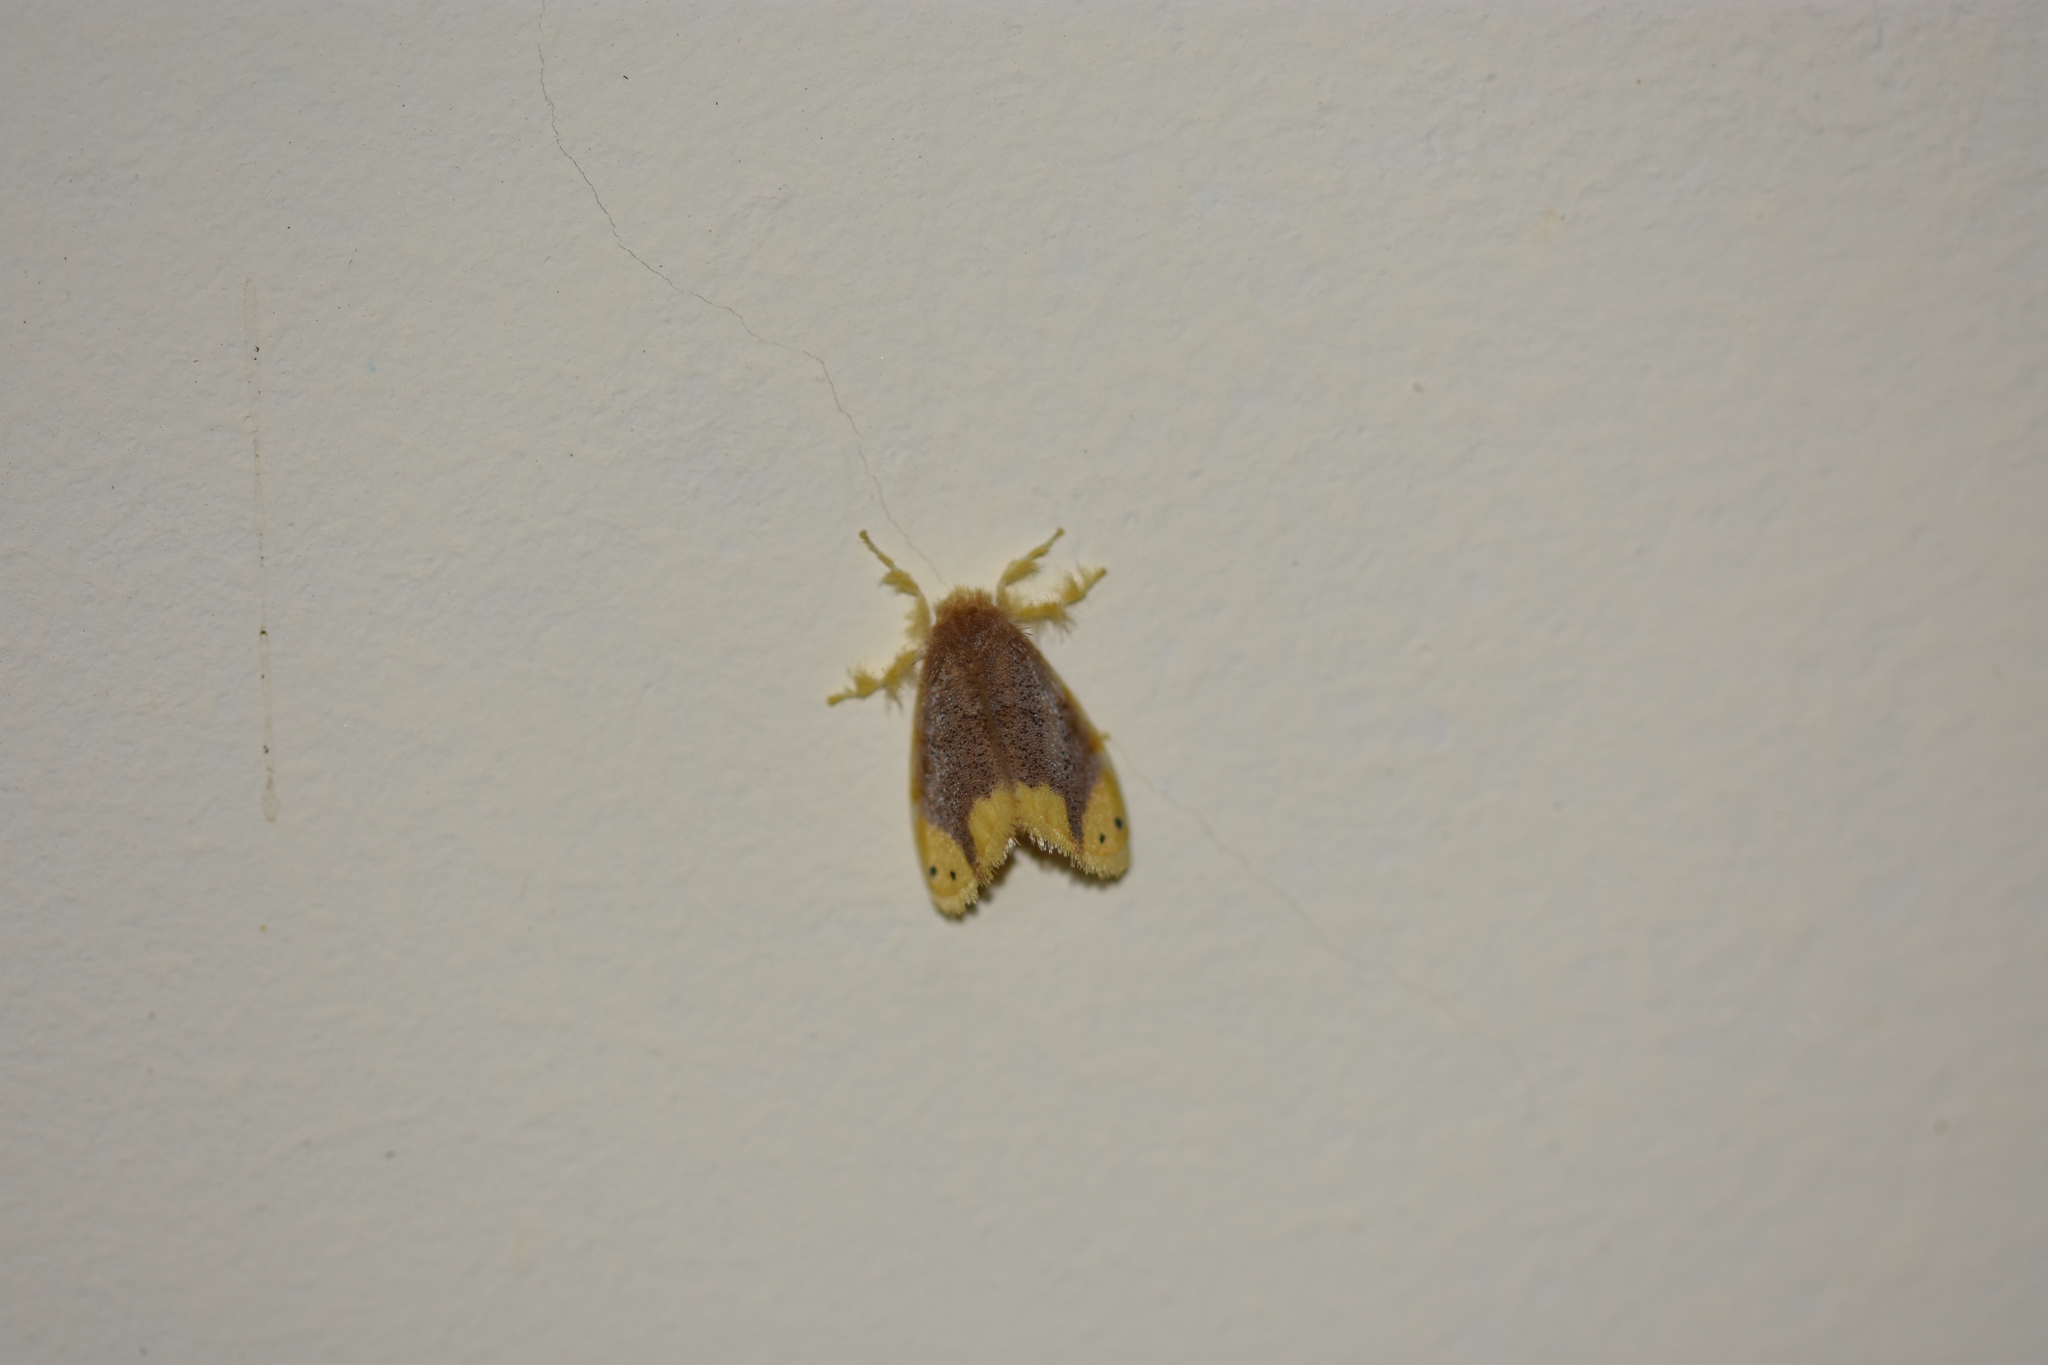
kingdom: Animalia
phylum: Arthropoda
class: Insecta
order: Lepidoptera
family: Erebidae
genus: Arna
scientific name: Arna bipunctapex
